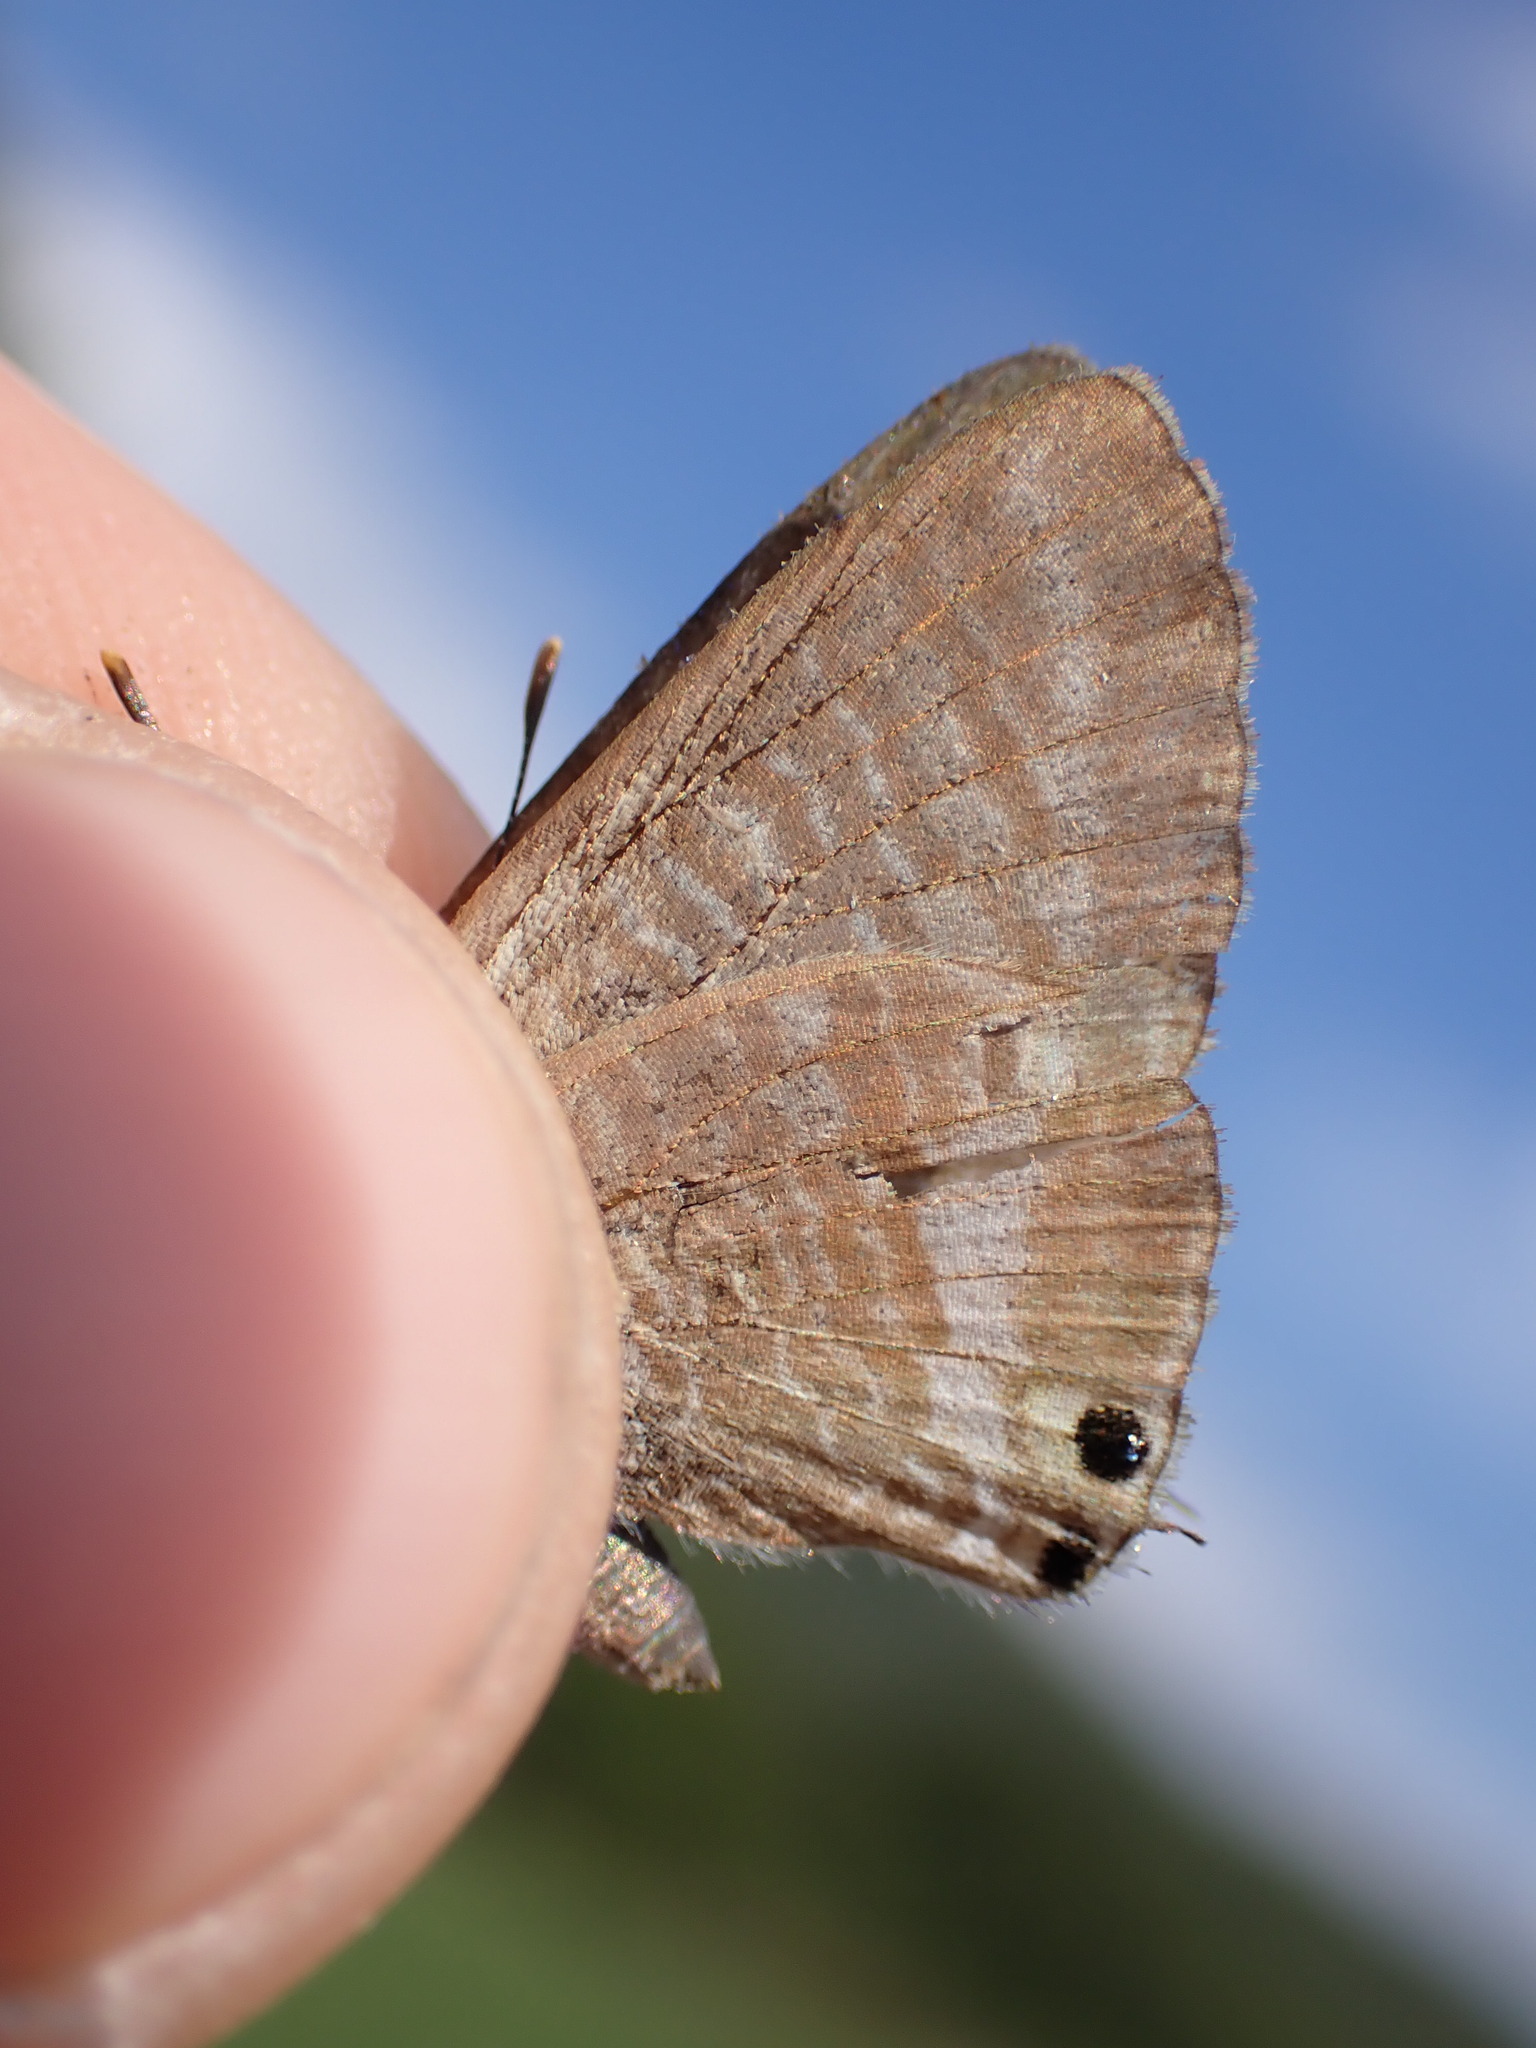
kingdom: Animalia
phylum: Arthropoda
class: Insecta
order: Lepidoptera
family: Lycaenidae
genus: Lampides
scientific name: Lampides boeticus
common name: Long-tailed blue
